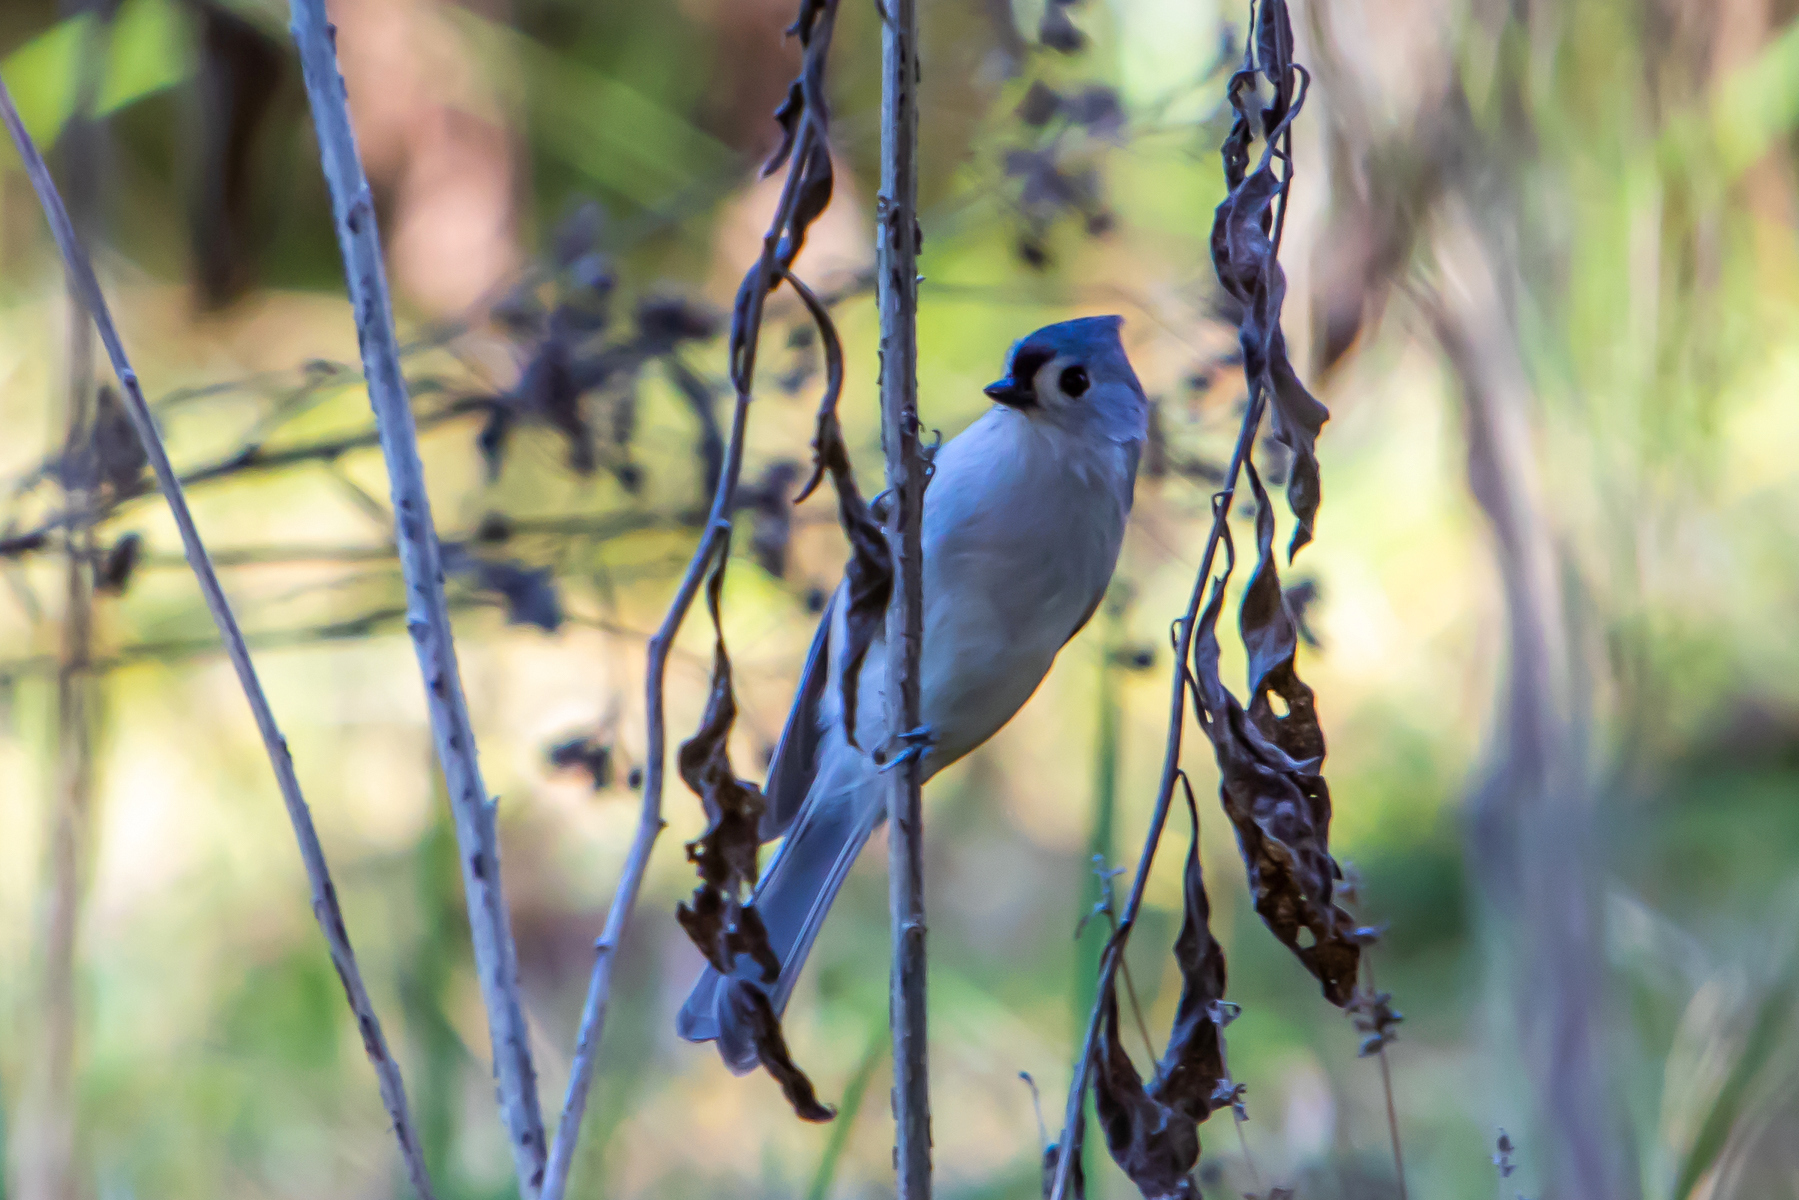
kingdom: Animalia
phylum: Chordata
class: Aves
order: Passeriformes
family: Paridae
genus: Baeolophus
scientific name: Baeolophus bicolor
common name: Tufted titmouse
